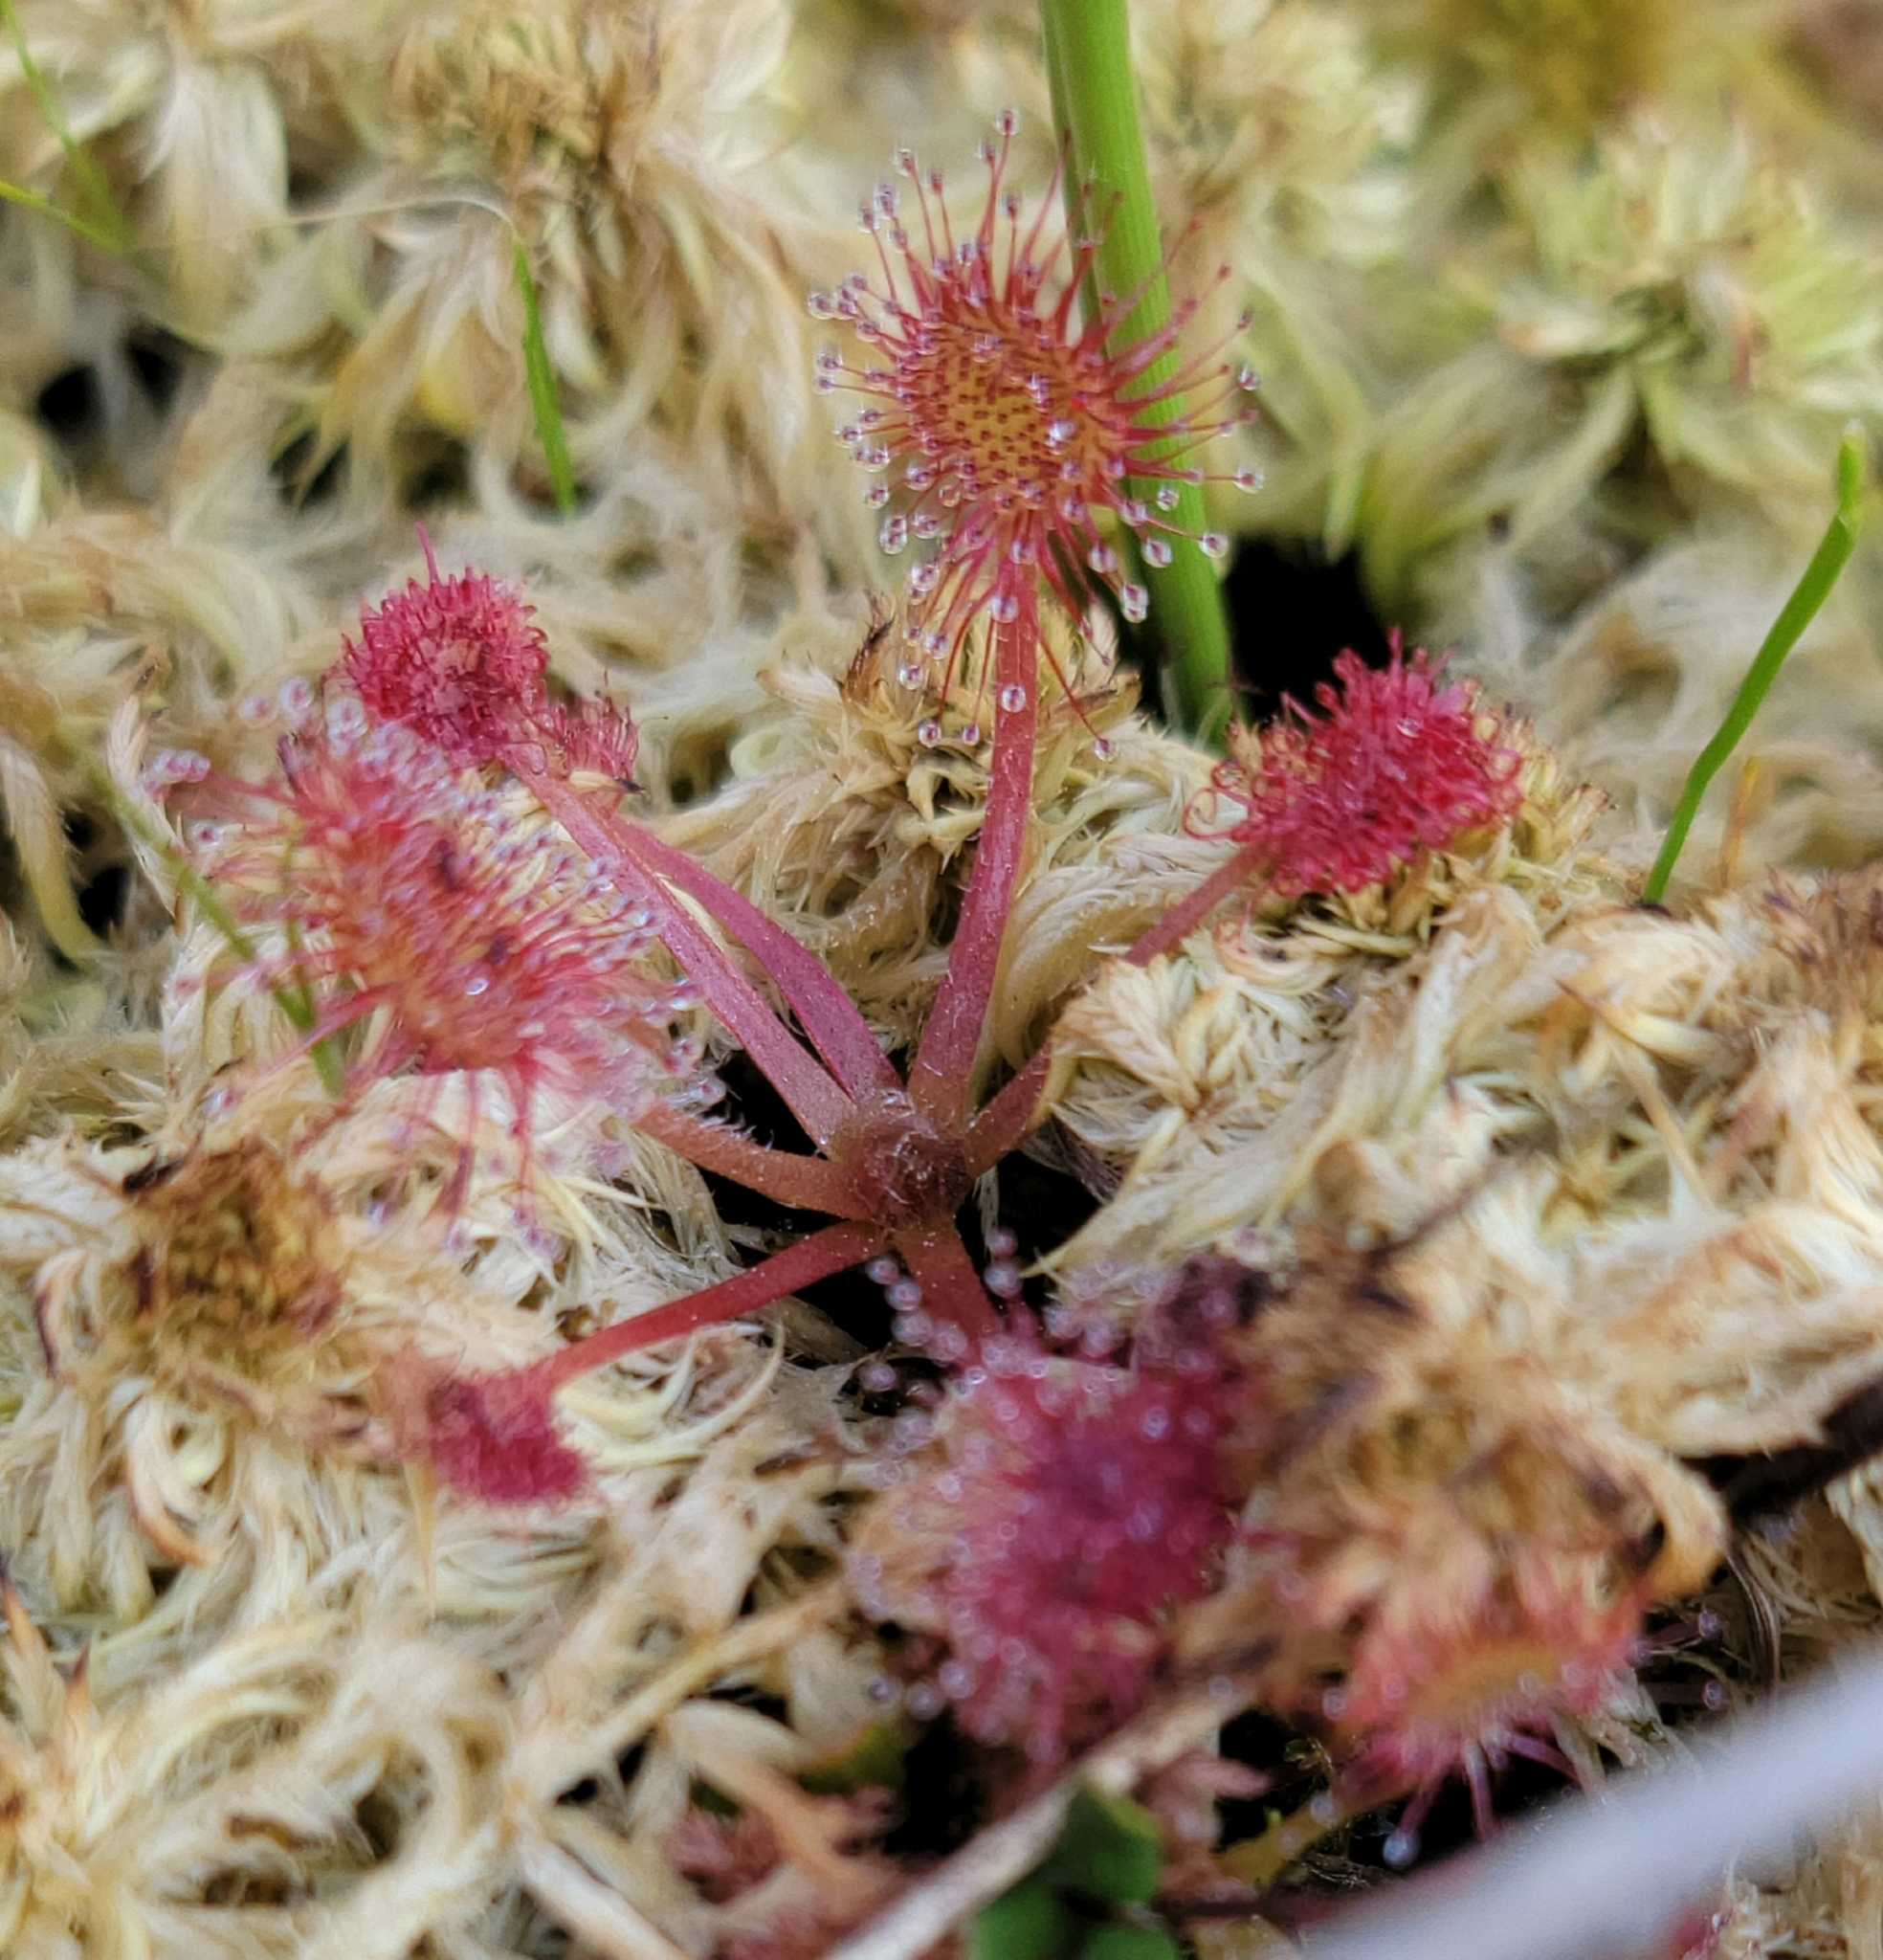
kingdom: Plantae
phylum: Tracheophyta
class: Magnoliopsida
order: Caryophyllales
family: Droseraceae
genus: Drosera
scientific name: Drosera rotundifolia
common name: Round-leaved sundew
